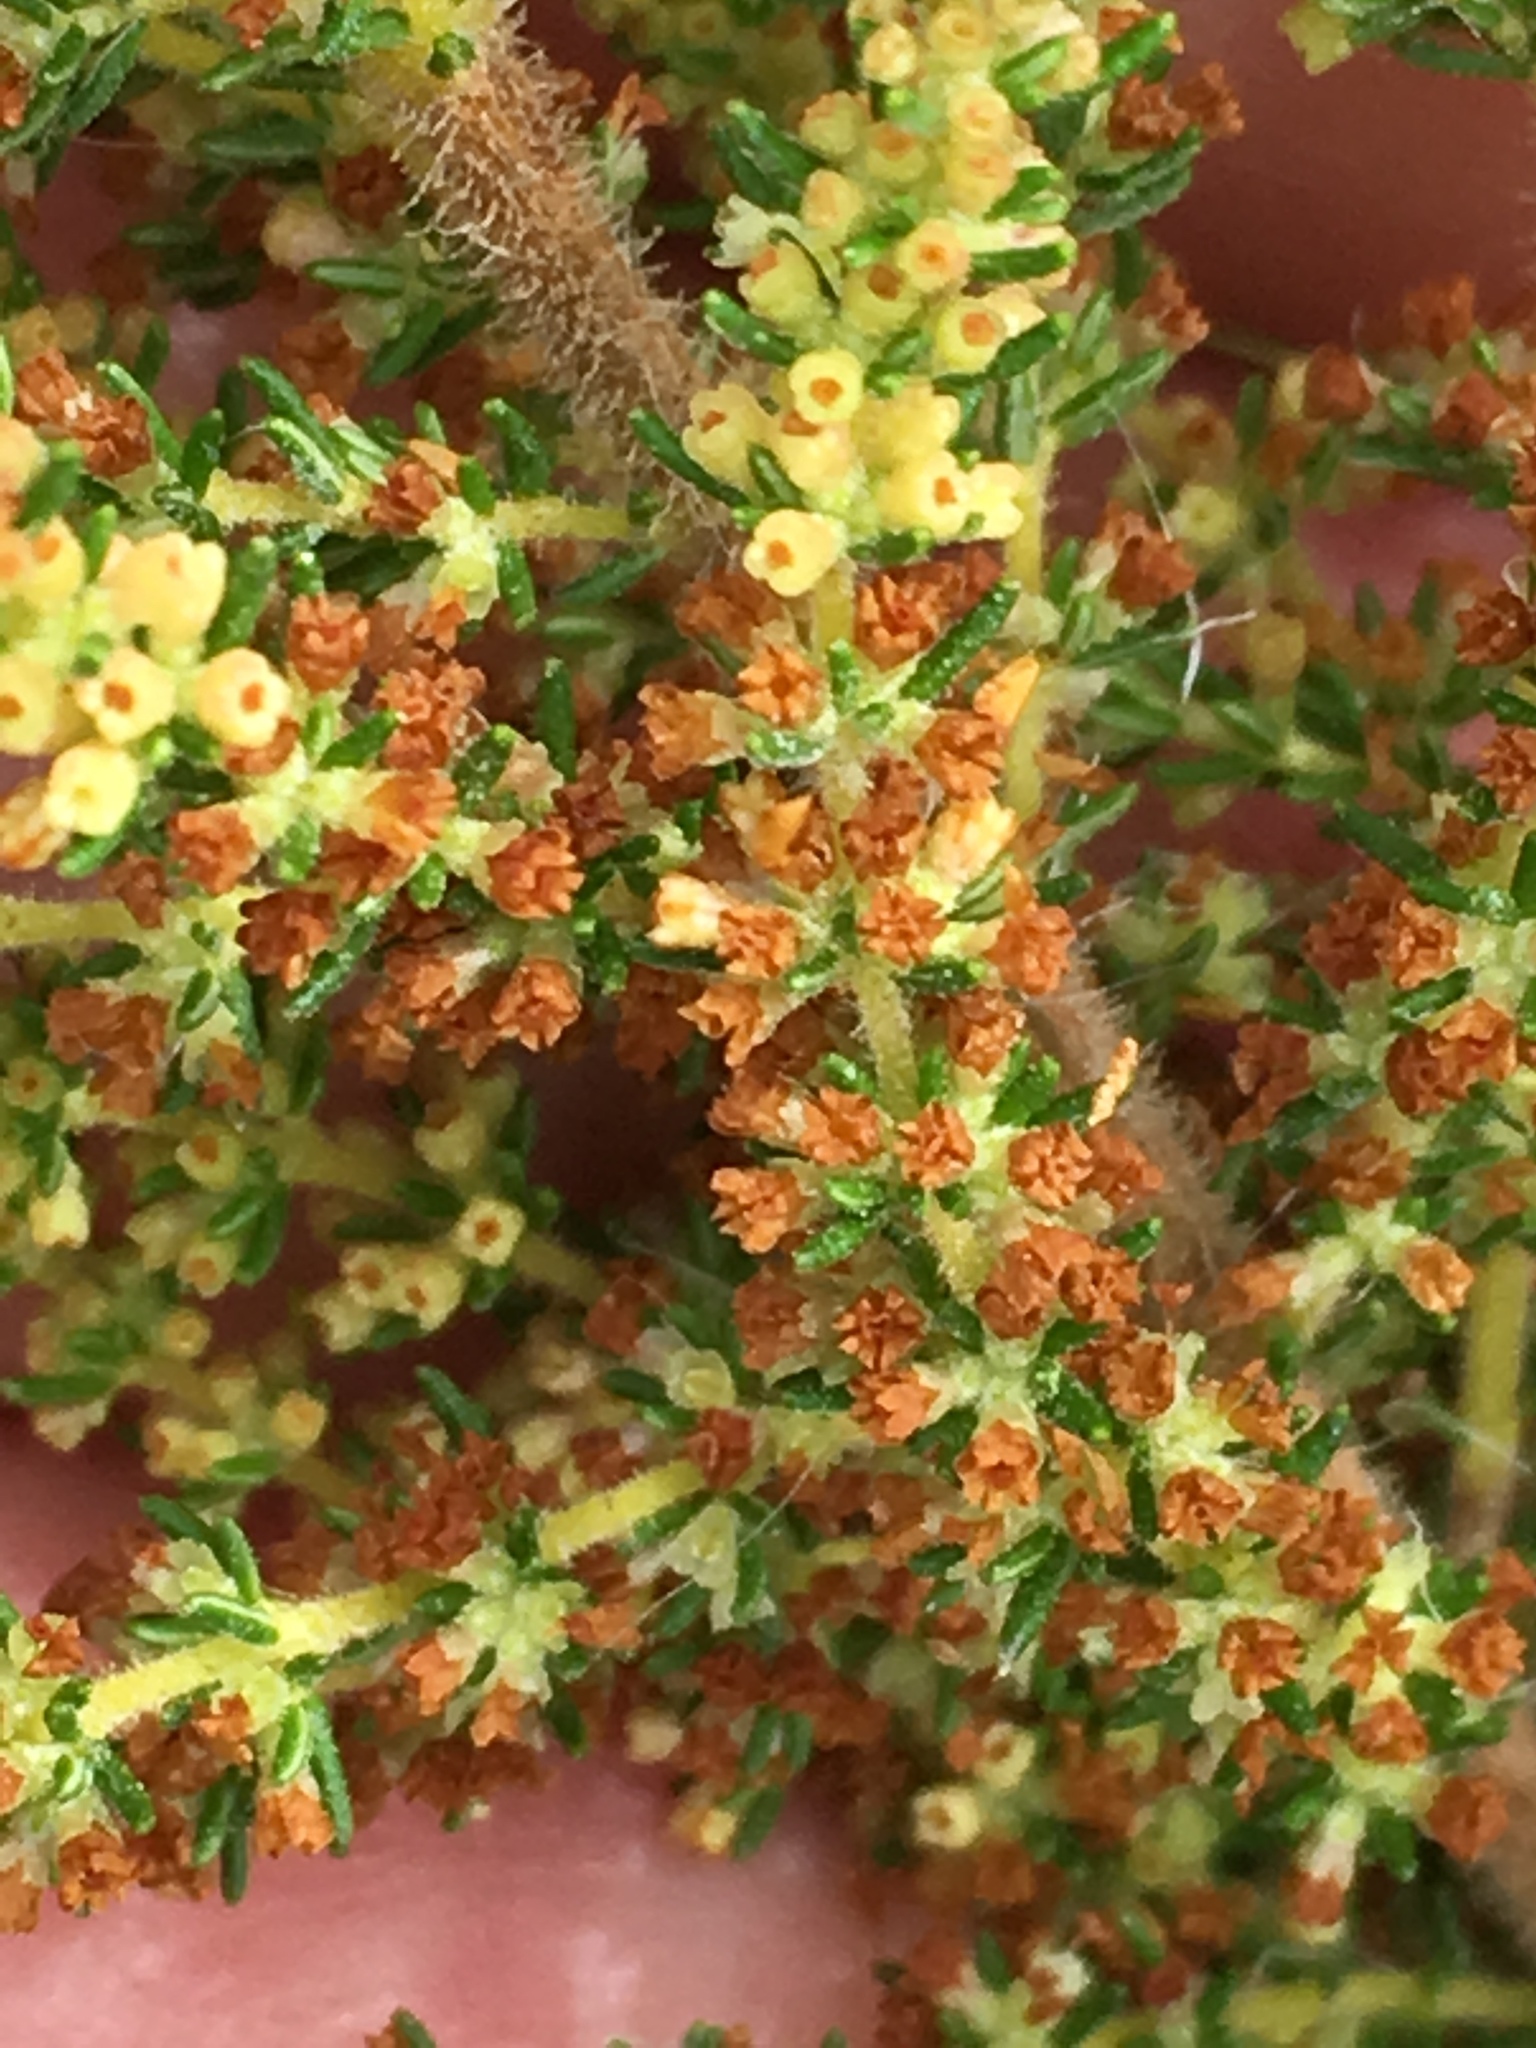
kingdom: Plantae
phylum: Tracheophyta
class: Magnoliopsida
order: Ericales
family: Ericaceae
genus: Erica
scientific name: Erica muscosa
